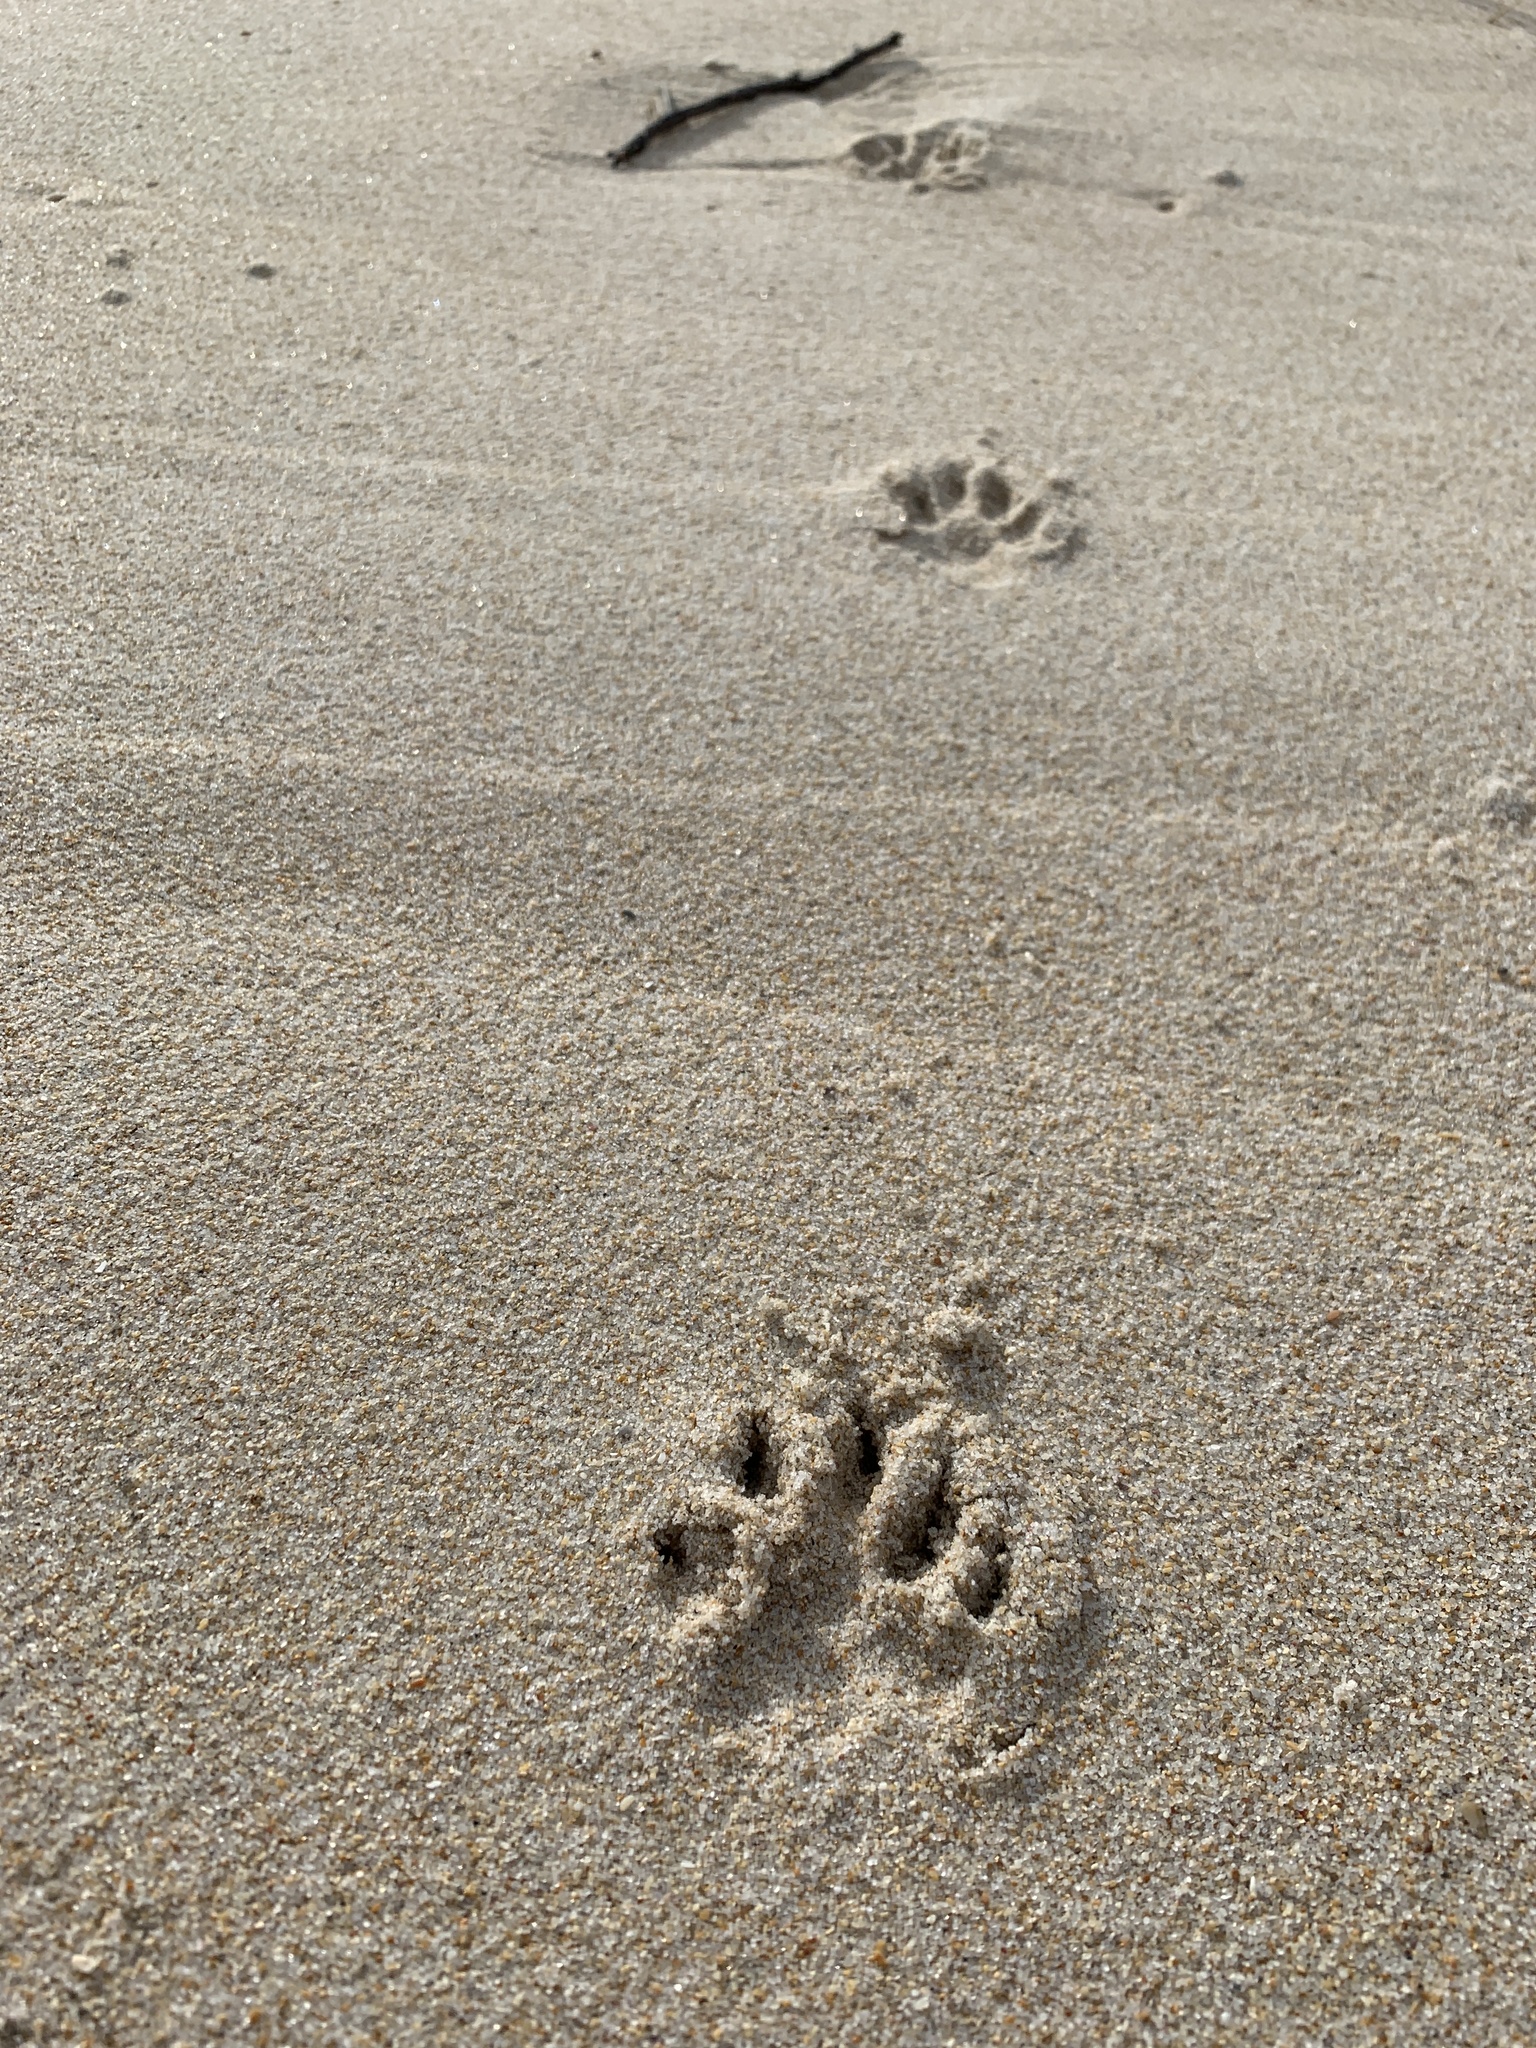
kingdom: Animalia
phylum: Chordata
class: Mammalia
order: Carnivora
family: Herpestidae
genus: Atilax
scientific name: Atilax paludinosus
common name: Marsh mongoose
